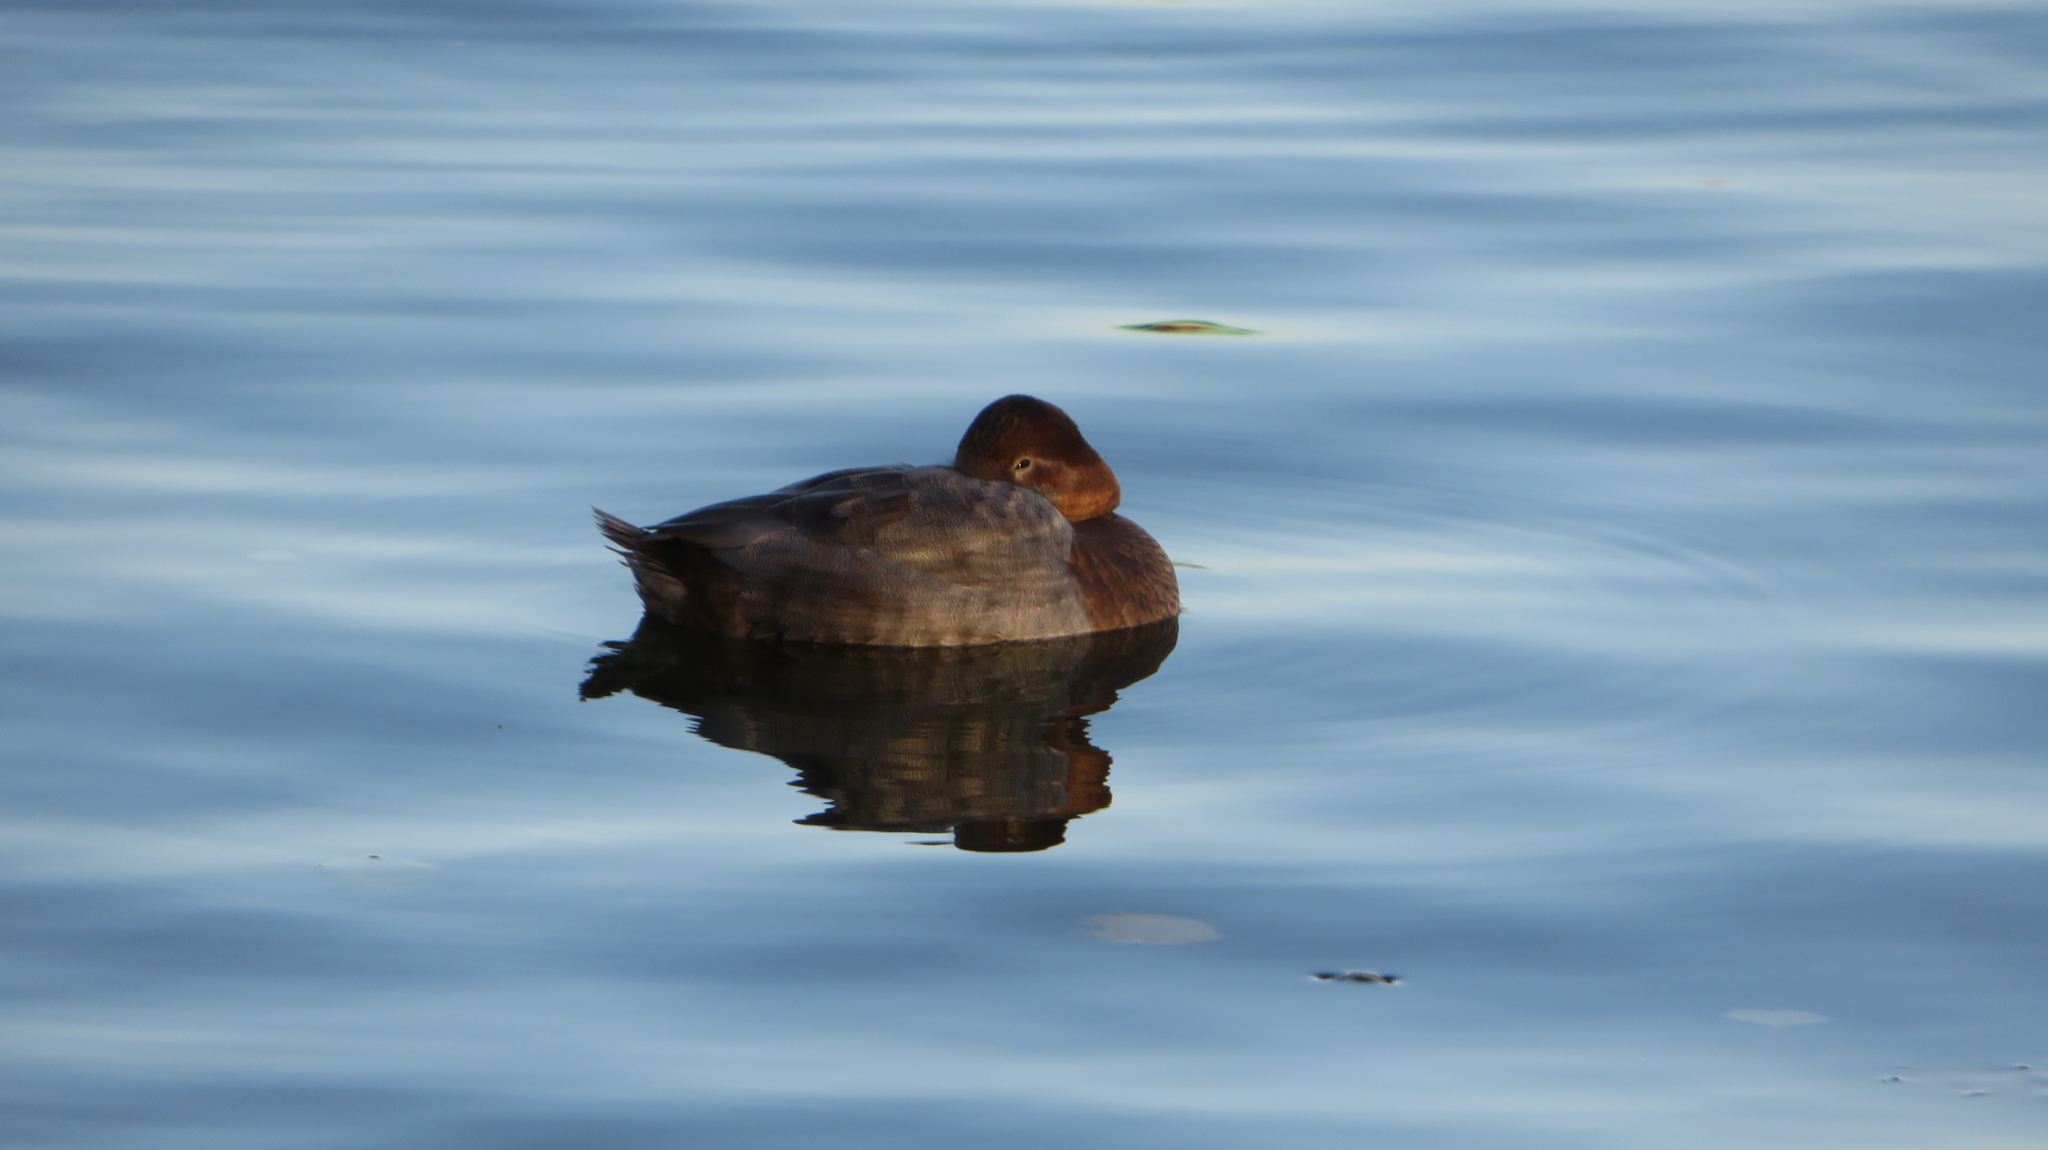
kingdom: Animalia
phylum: Chordata
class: Aves
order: Anseriformes
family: Anatidae
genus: Aythya
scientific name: Aythya ferina
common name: Common pochard
